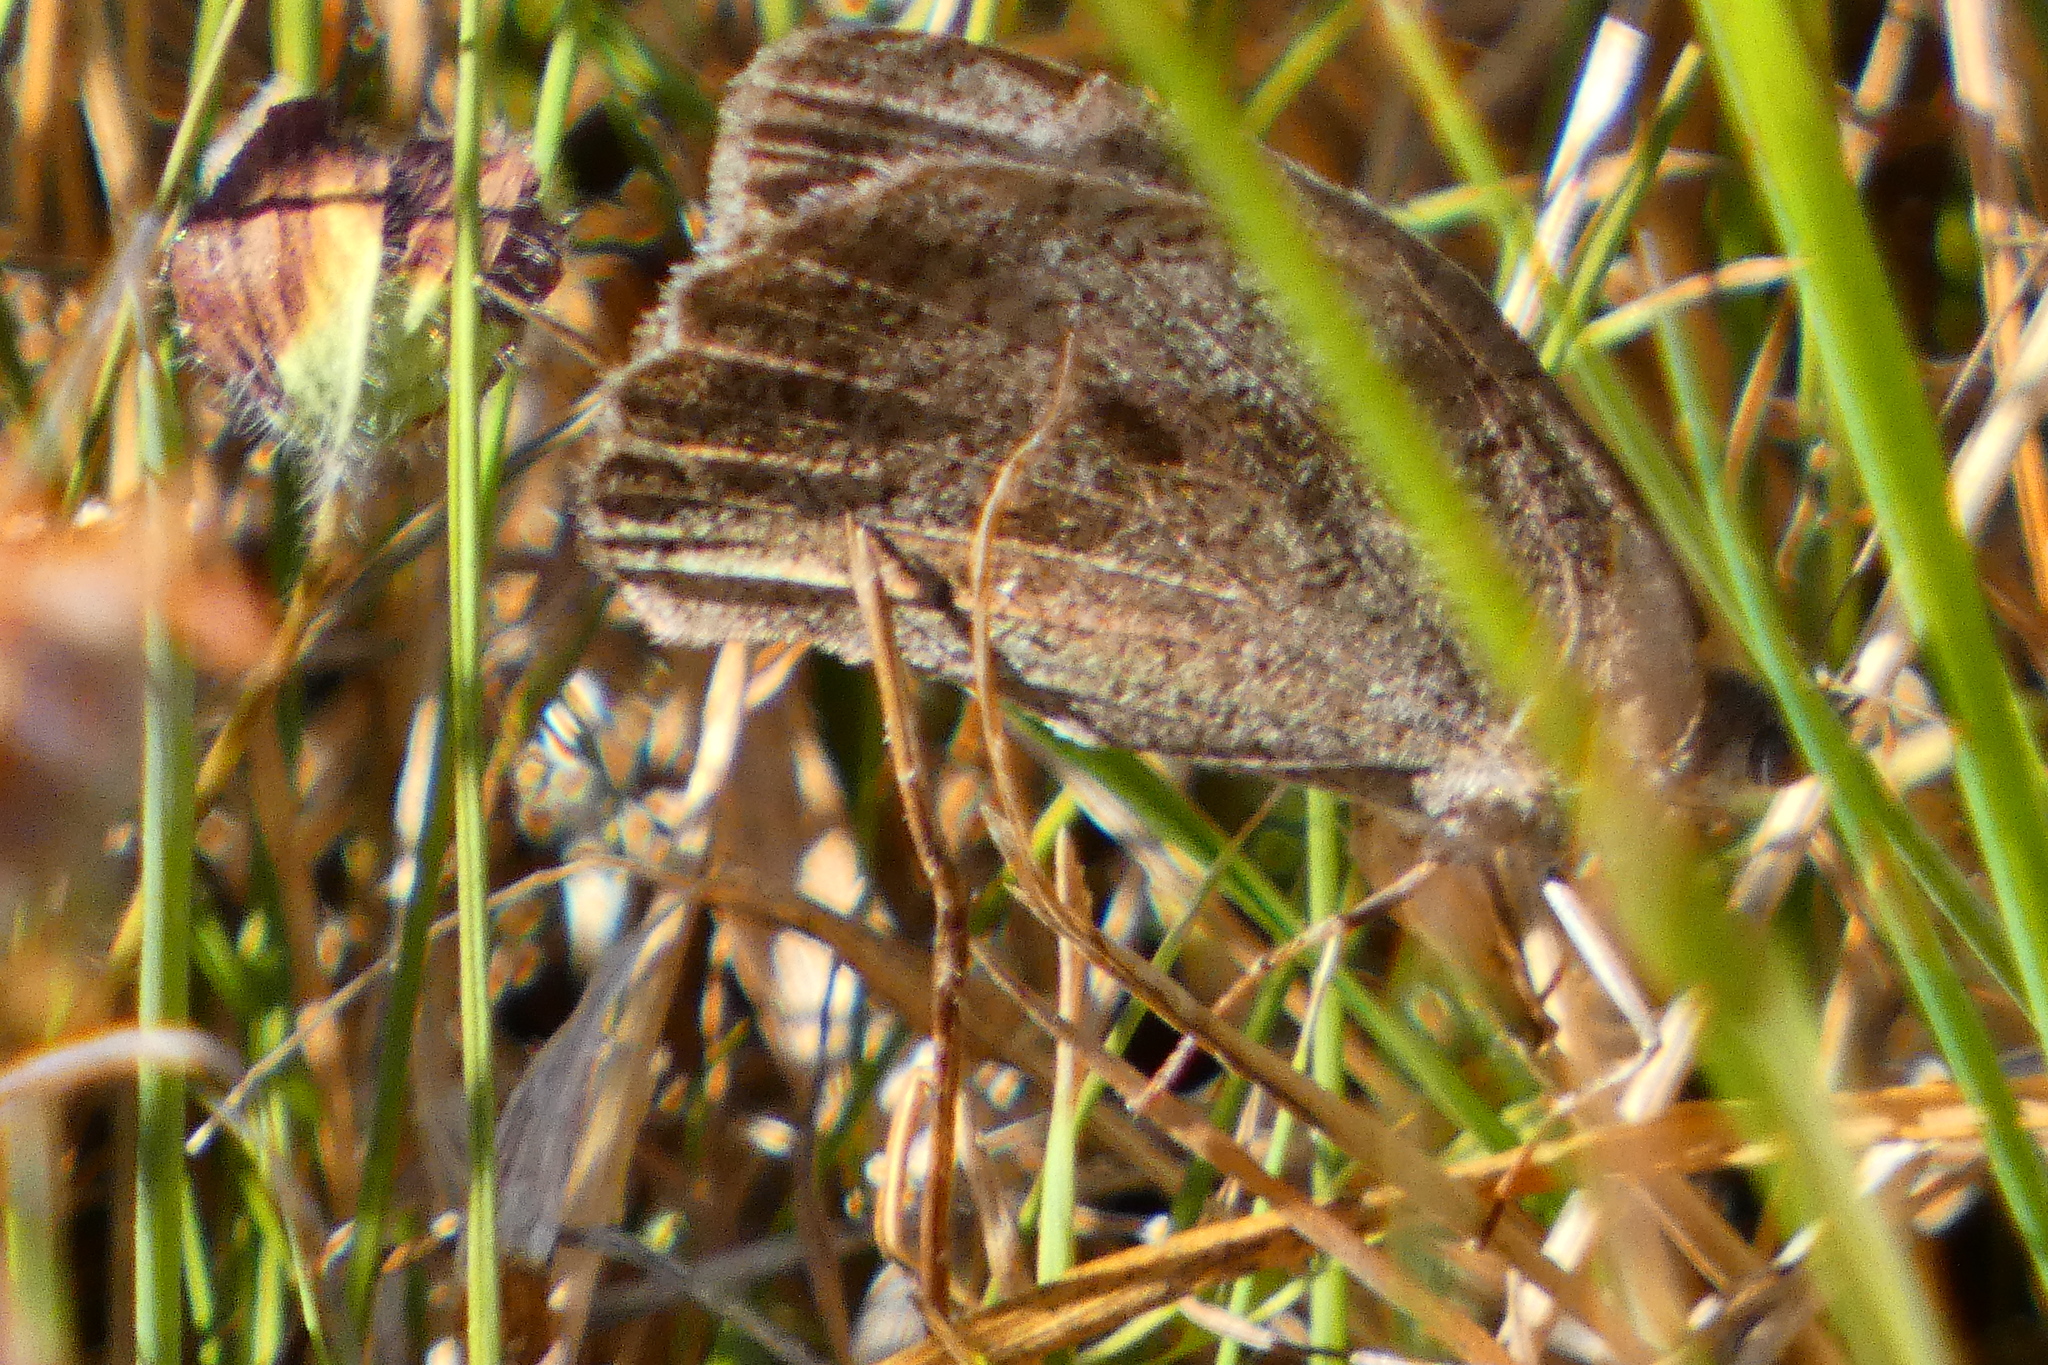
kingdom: Animalia
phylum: Arthropoda
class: Insecta
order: Lepidoptera
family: Nymphalidae
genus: Maniola
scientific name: Maniola jurtina
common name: Meadow brown
